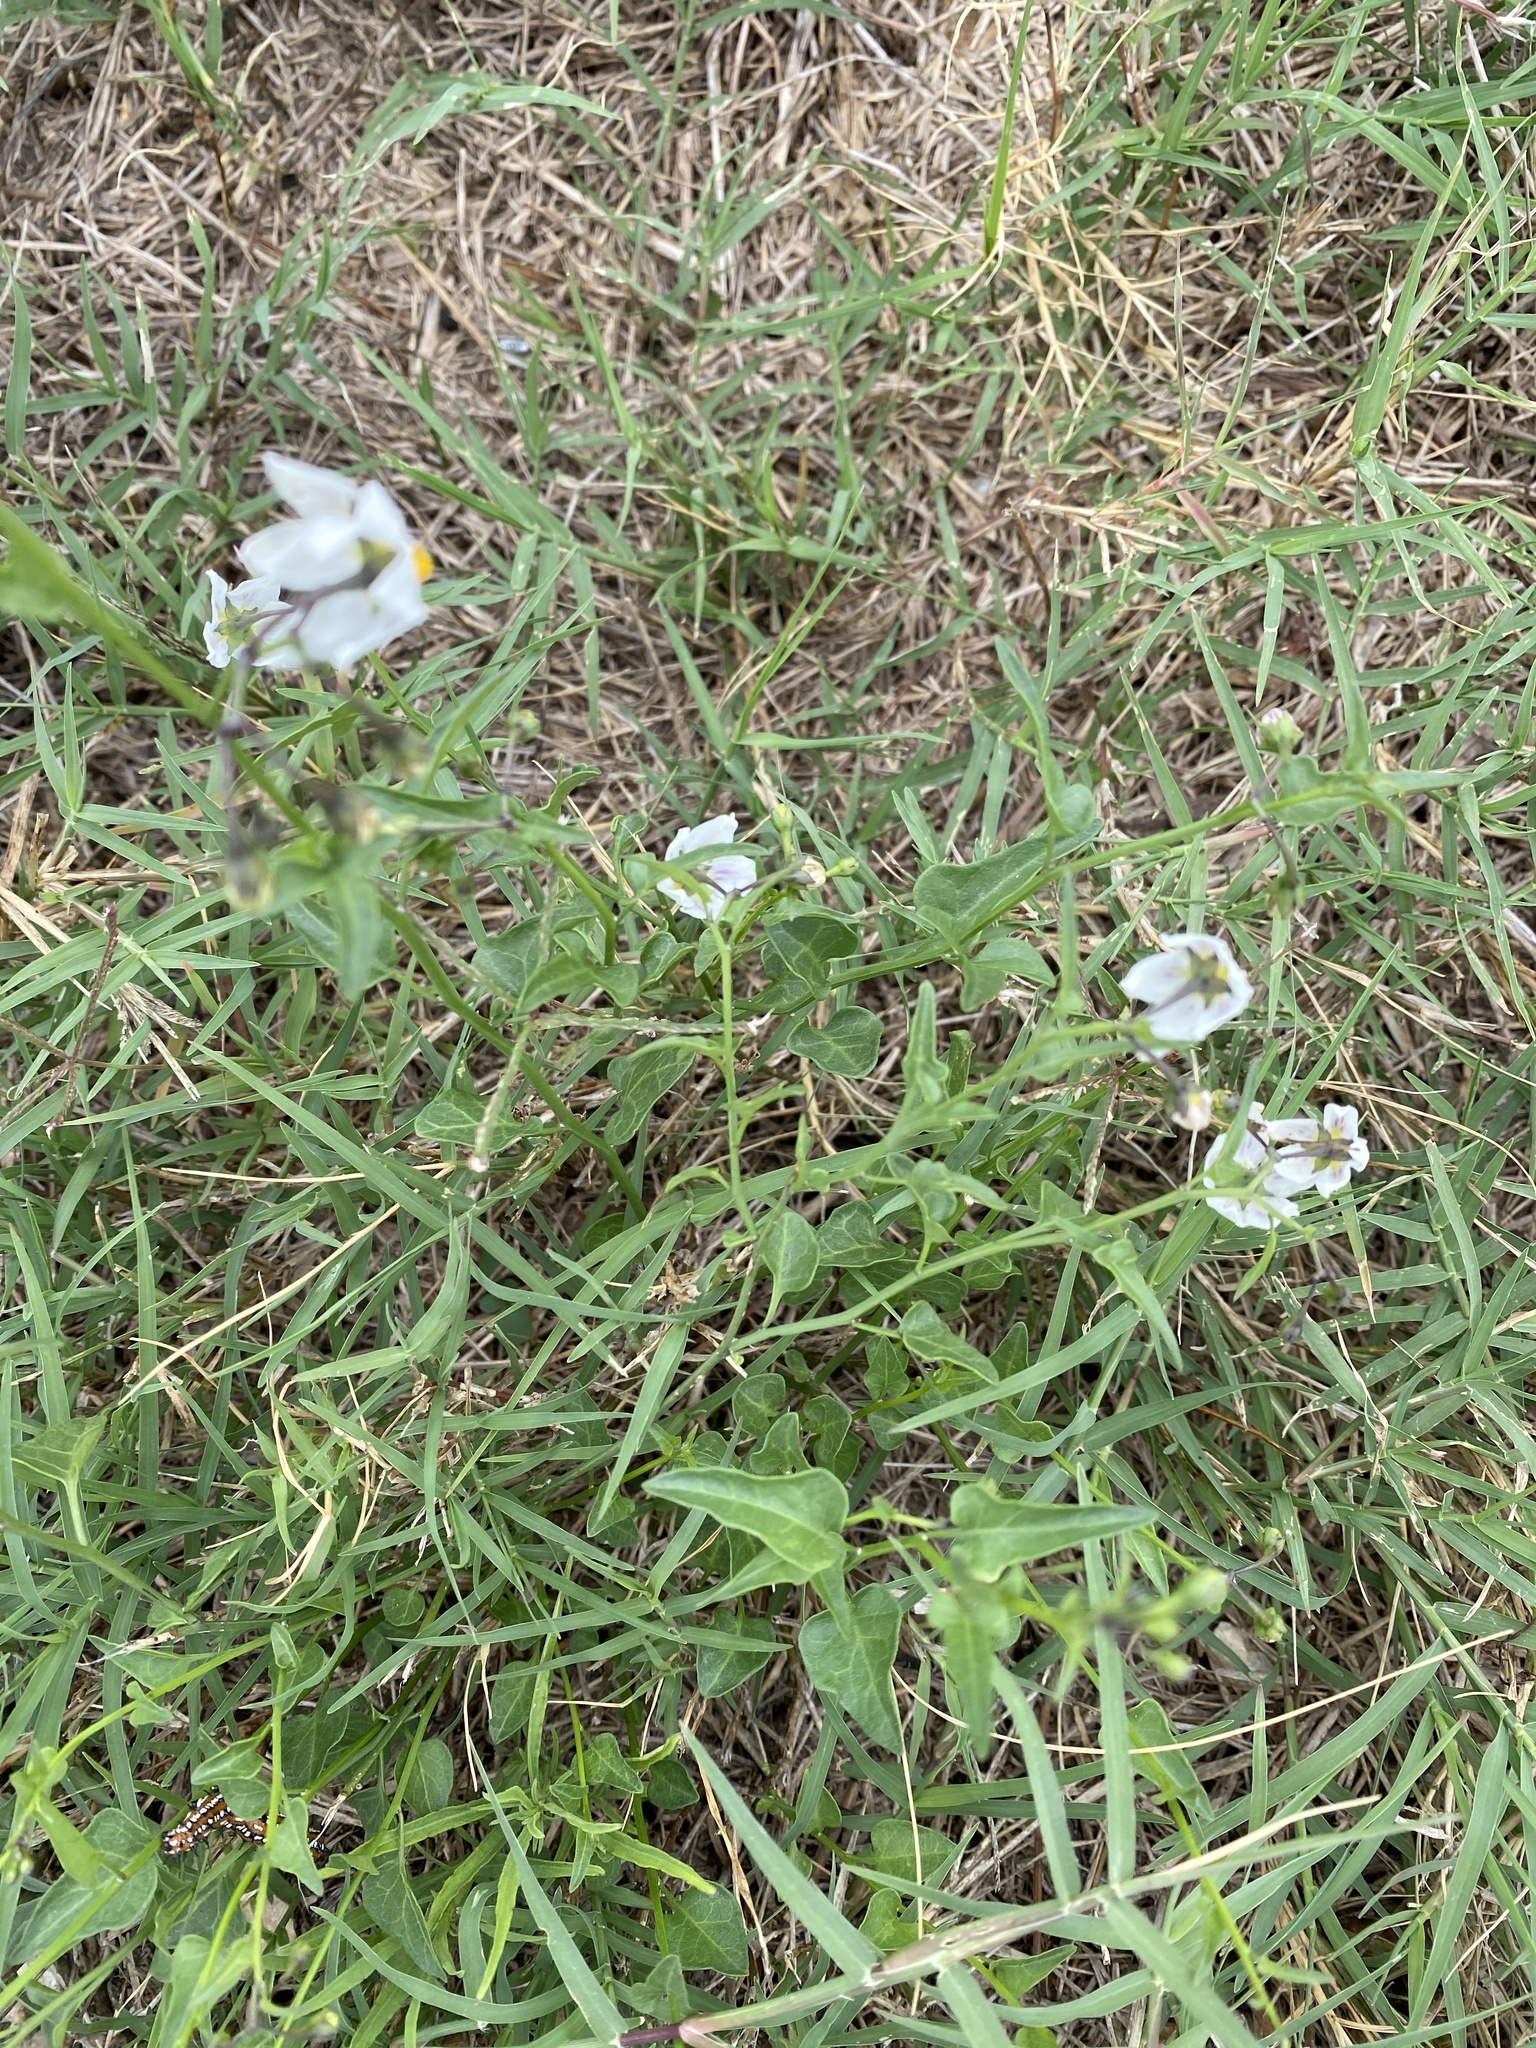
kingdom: Plantae
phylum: Tracheophyta
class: Magnoliopsida
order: Solanales
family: Solanaceae
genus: Solanum
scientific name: Solanum triquetrum
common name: Texas nightshade
